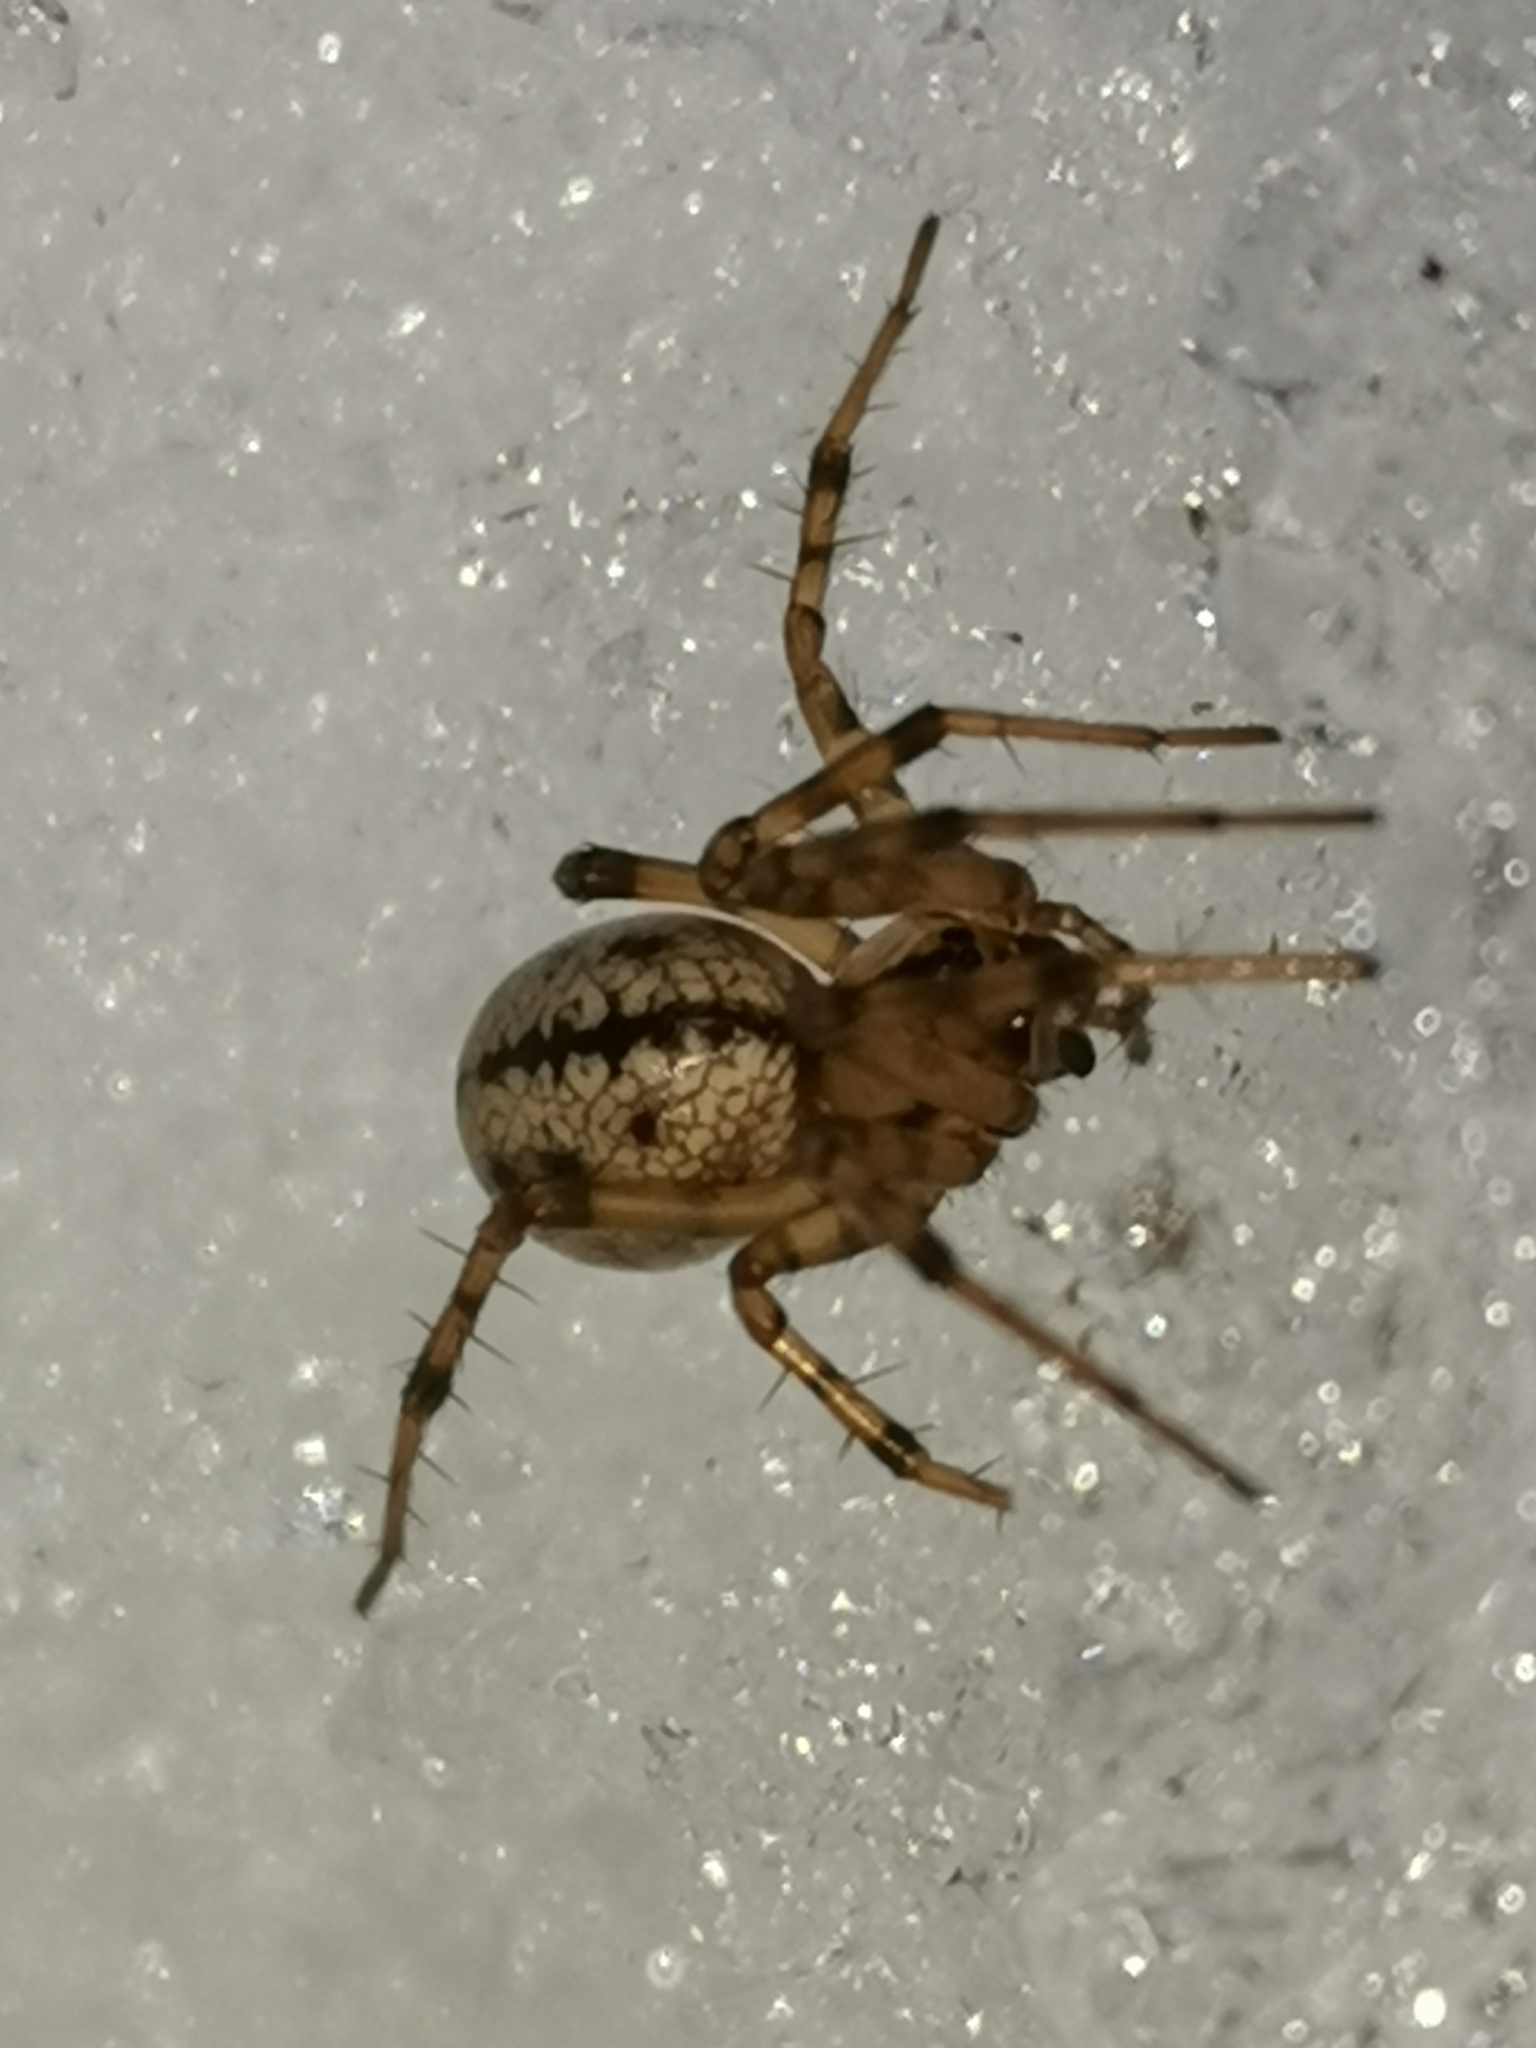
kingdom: Animalia
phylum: Arthropoda
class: Arachnida
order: Araneae
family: Linyphiidae
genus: Stemonyphantes
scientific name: Stemonyphantes lineatus
